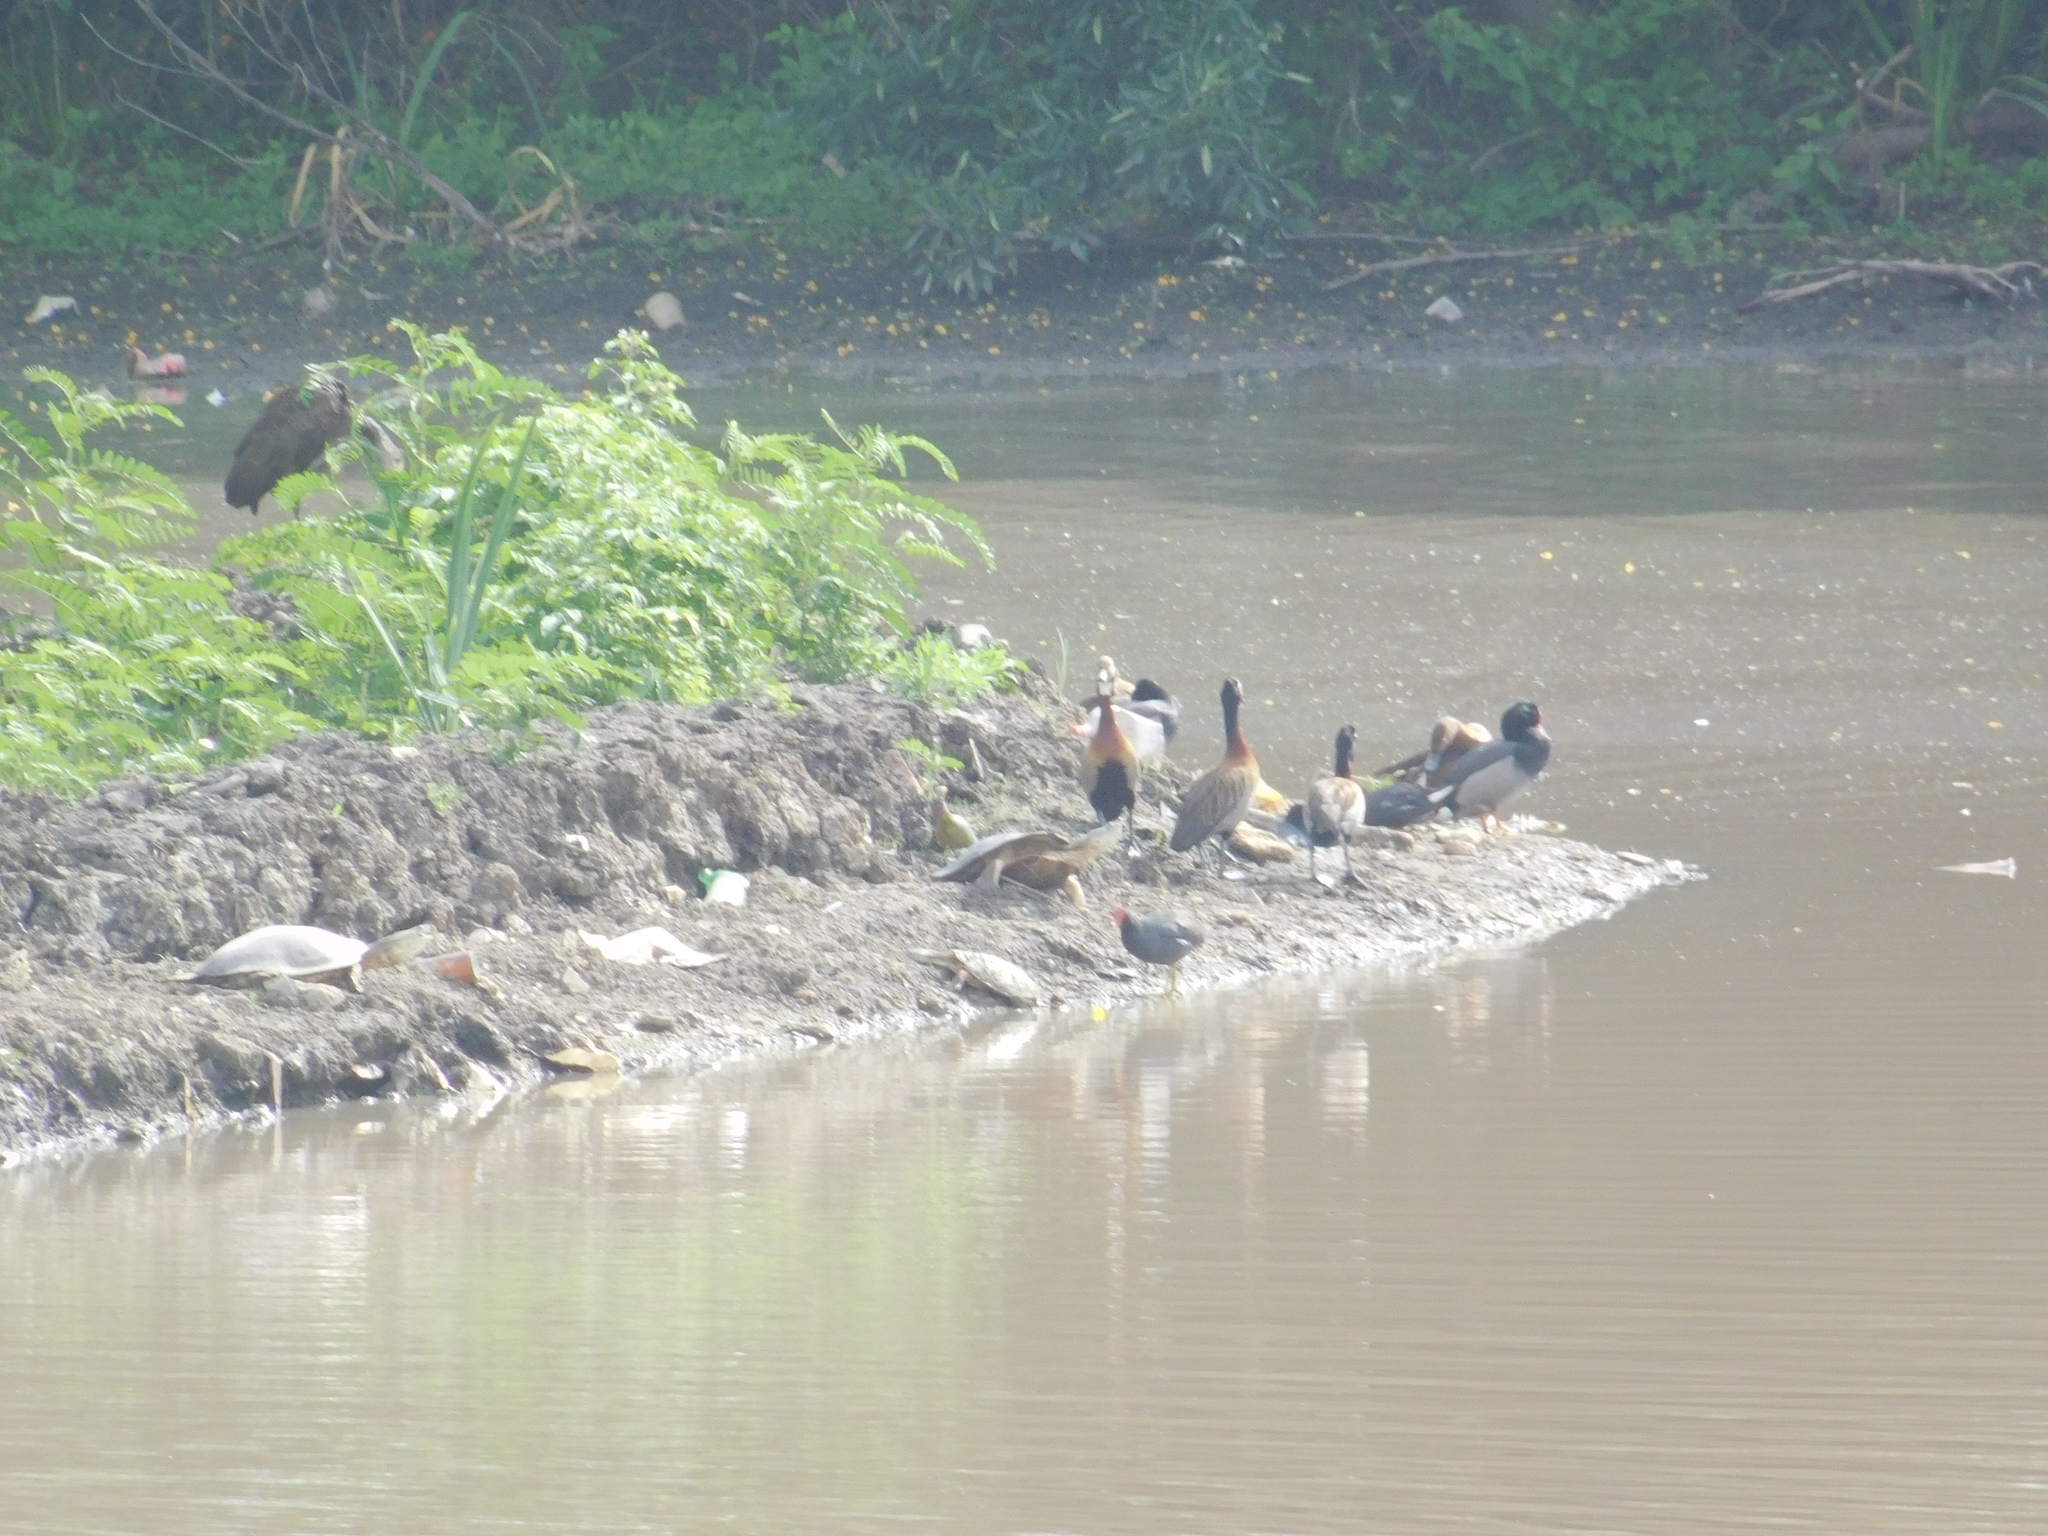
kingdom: Animalia
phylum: Chordata
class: Aves
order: Anseriformes
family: Anatidae
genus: Dendrocygna
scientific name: Dendrocygna viduata
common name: White-faced whistling duck
